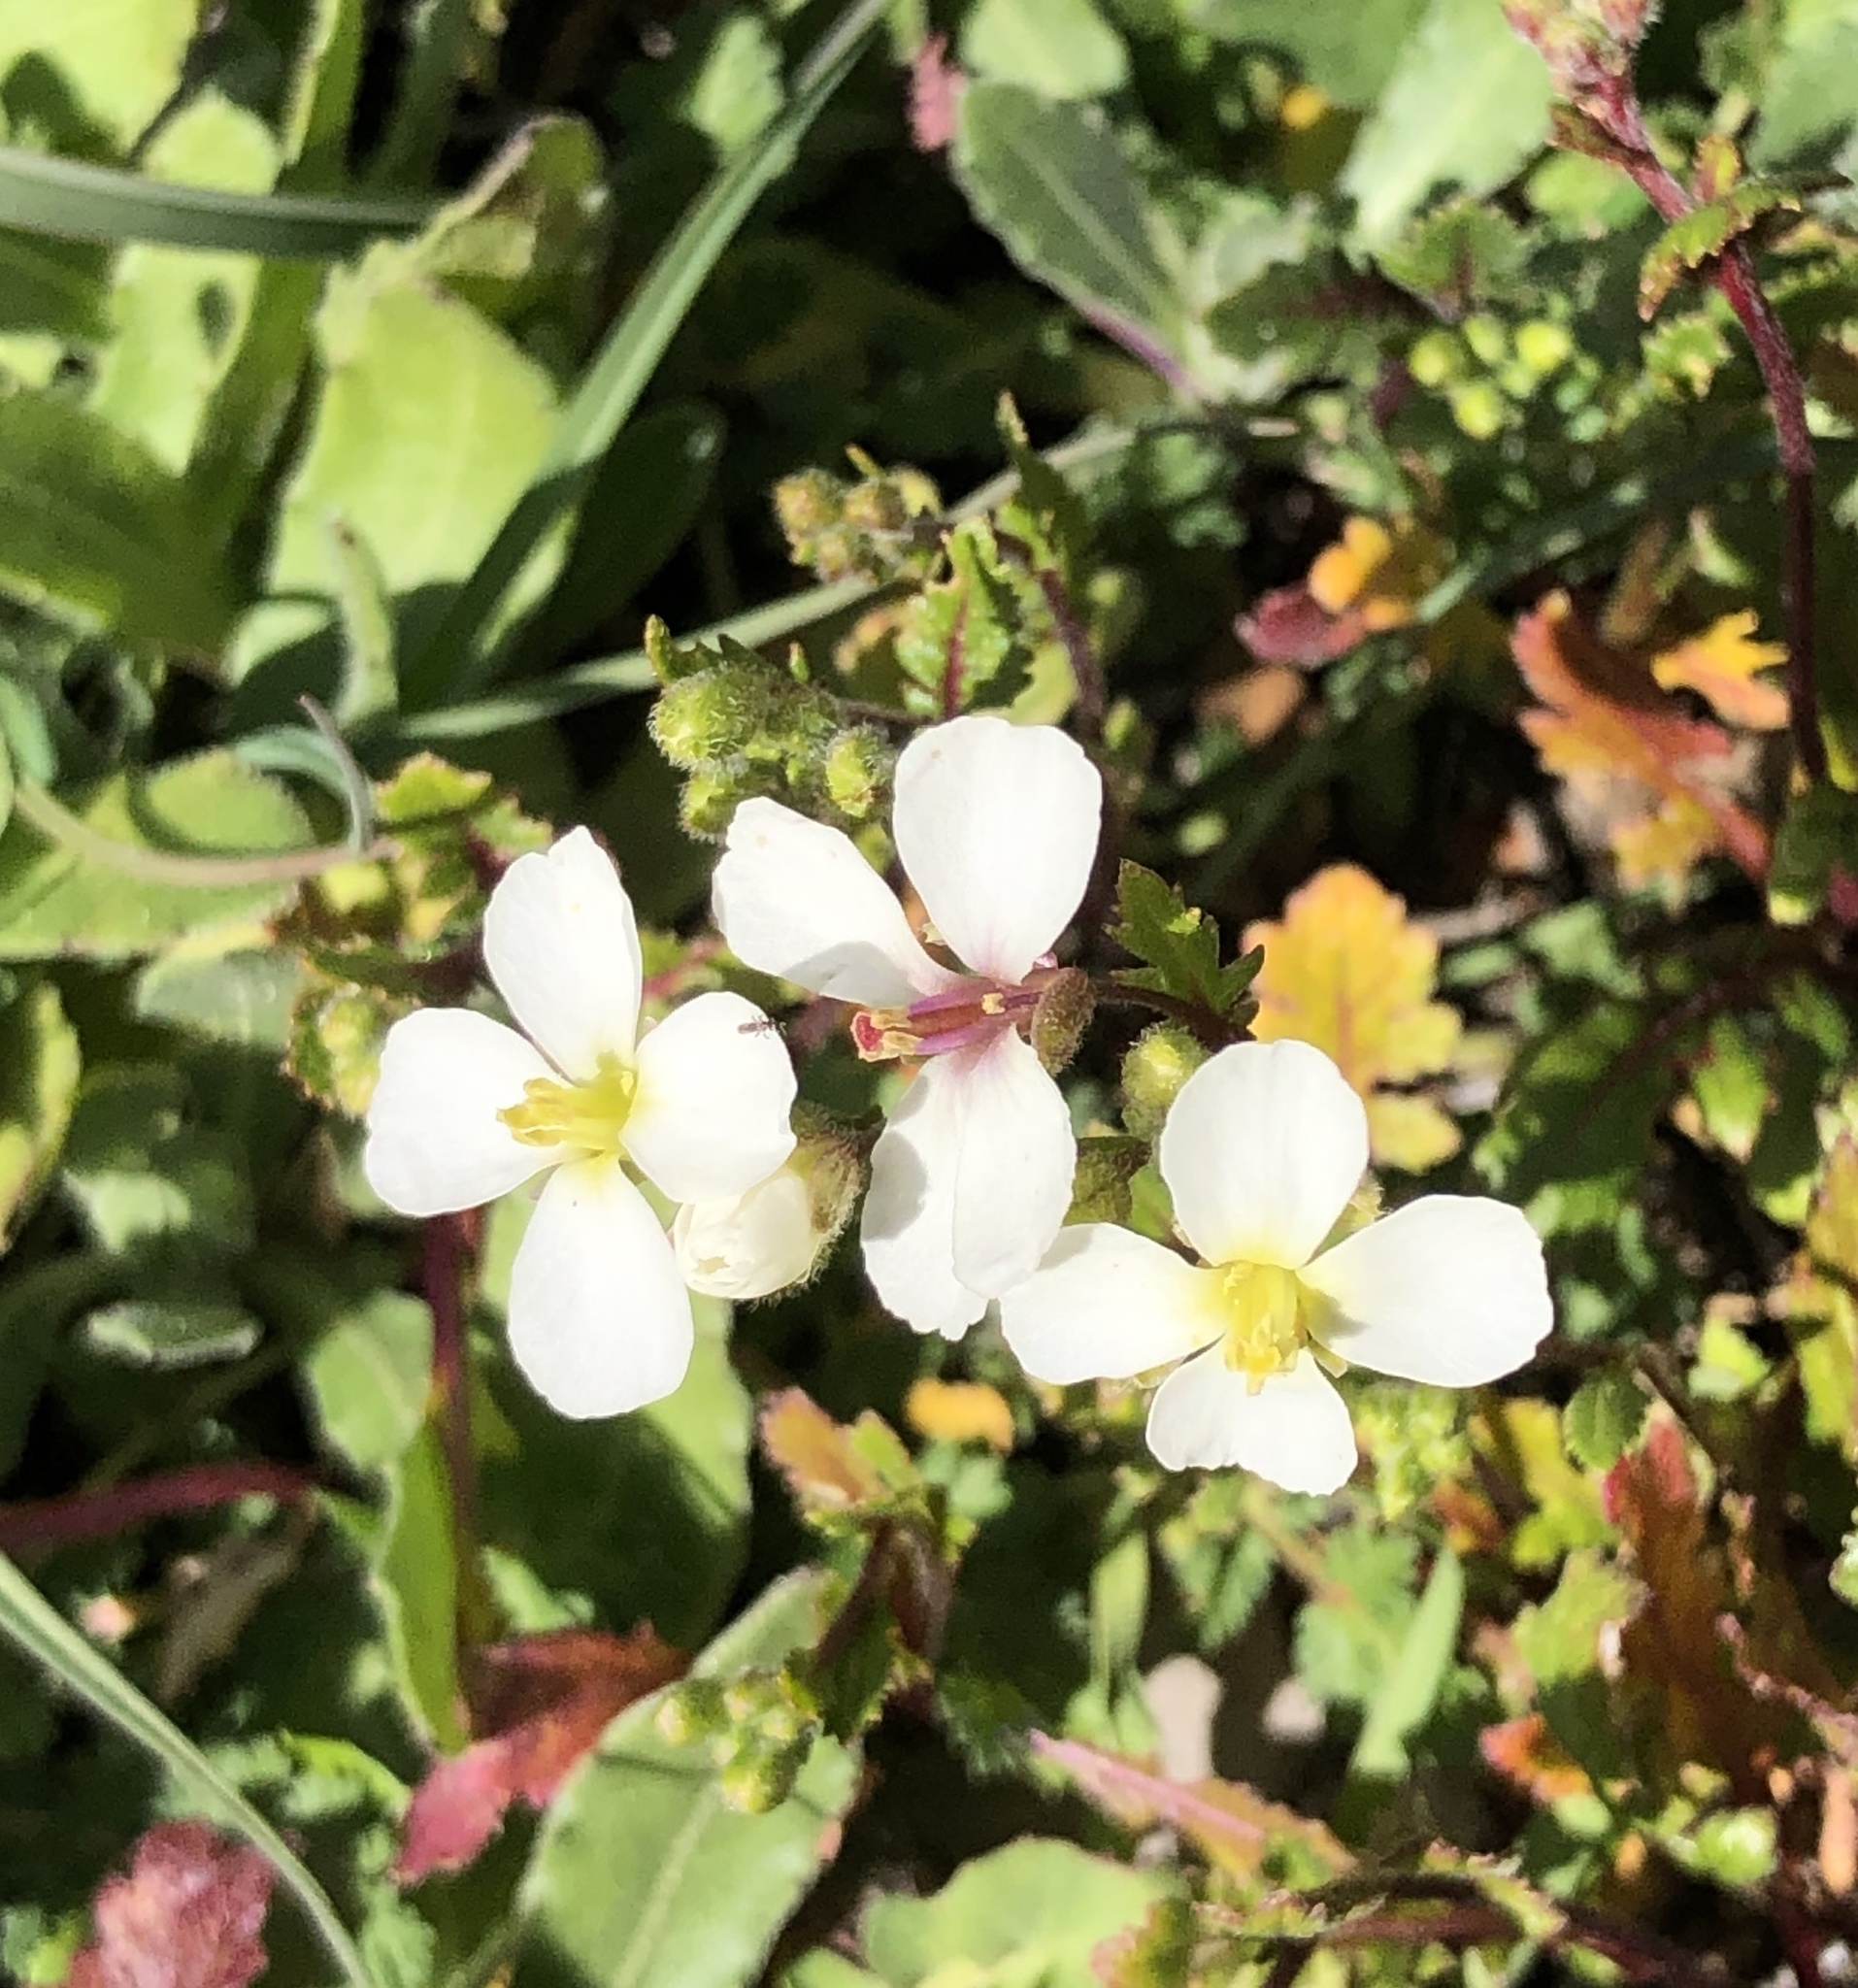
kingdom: Plantae
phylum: Tracheophyta
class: Magnoliopsida
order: Brassicales
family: Brassicaceae
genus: Diplotaxis
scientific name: Diplotaxis erucoides
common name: White rocket
